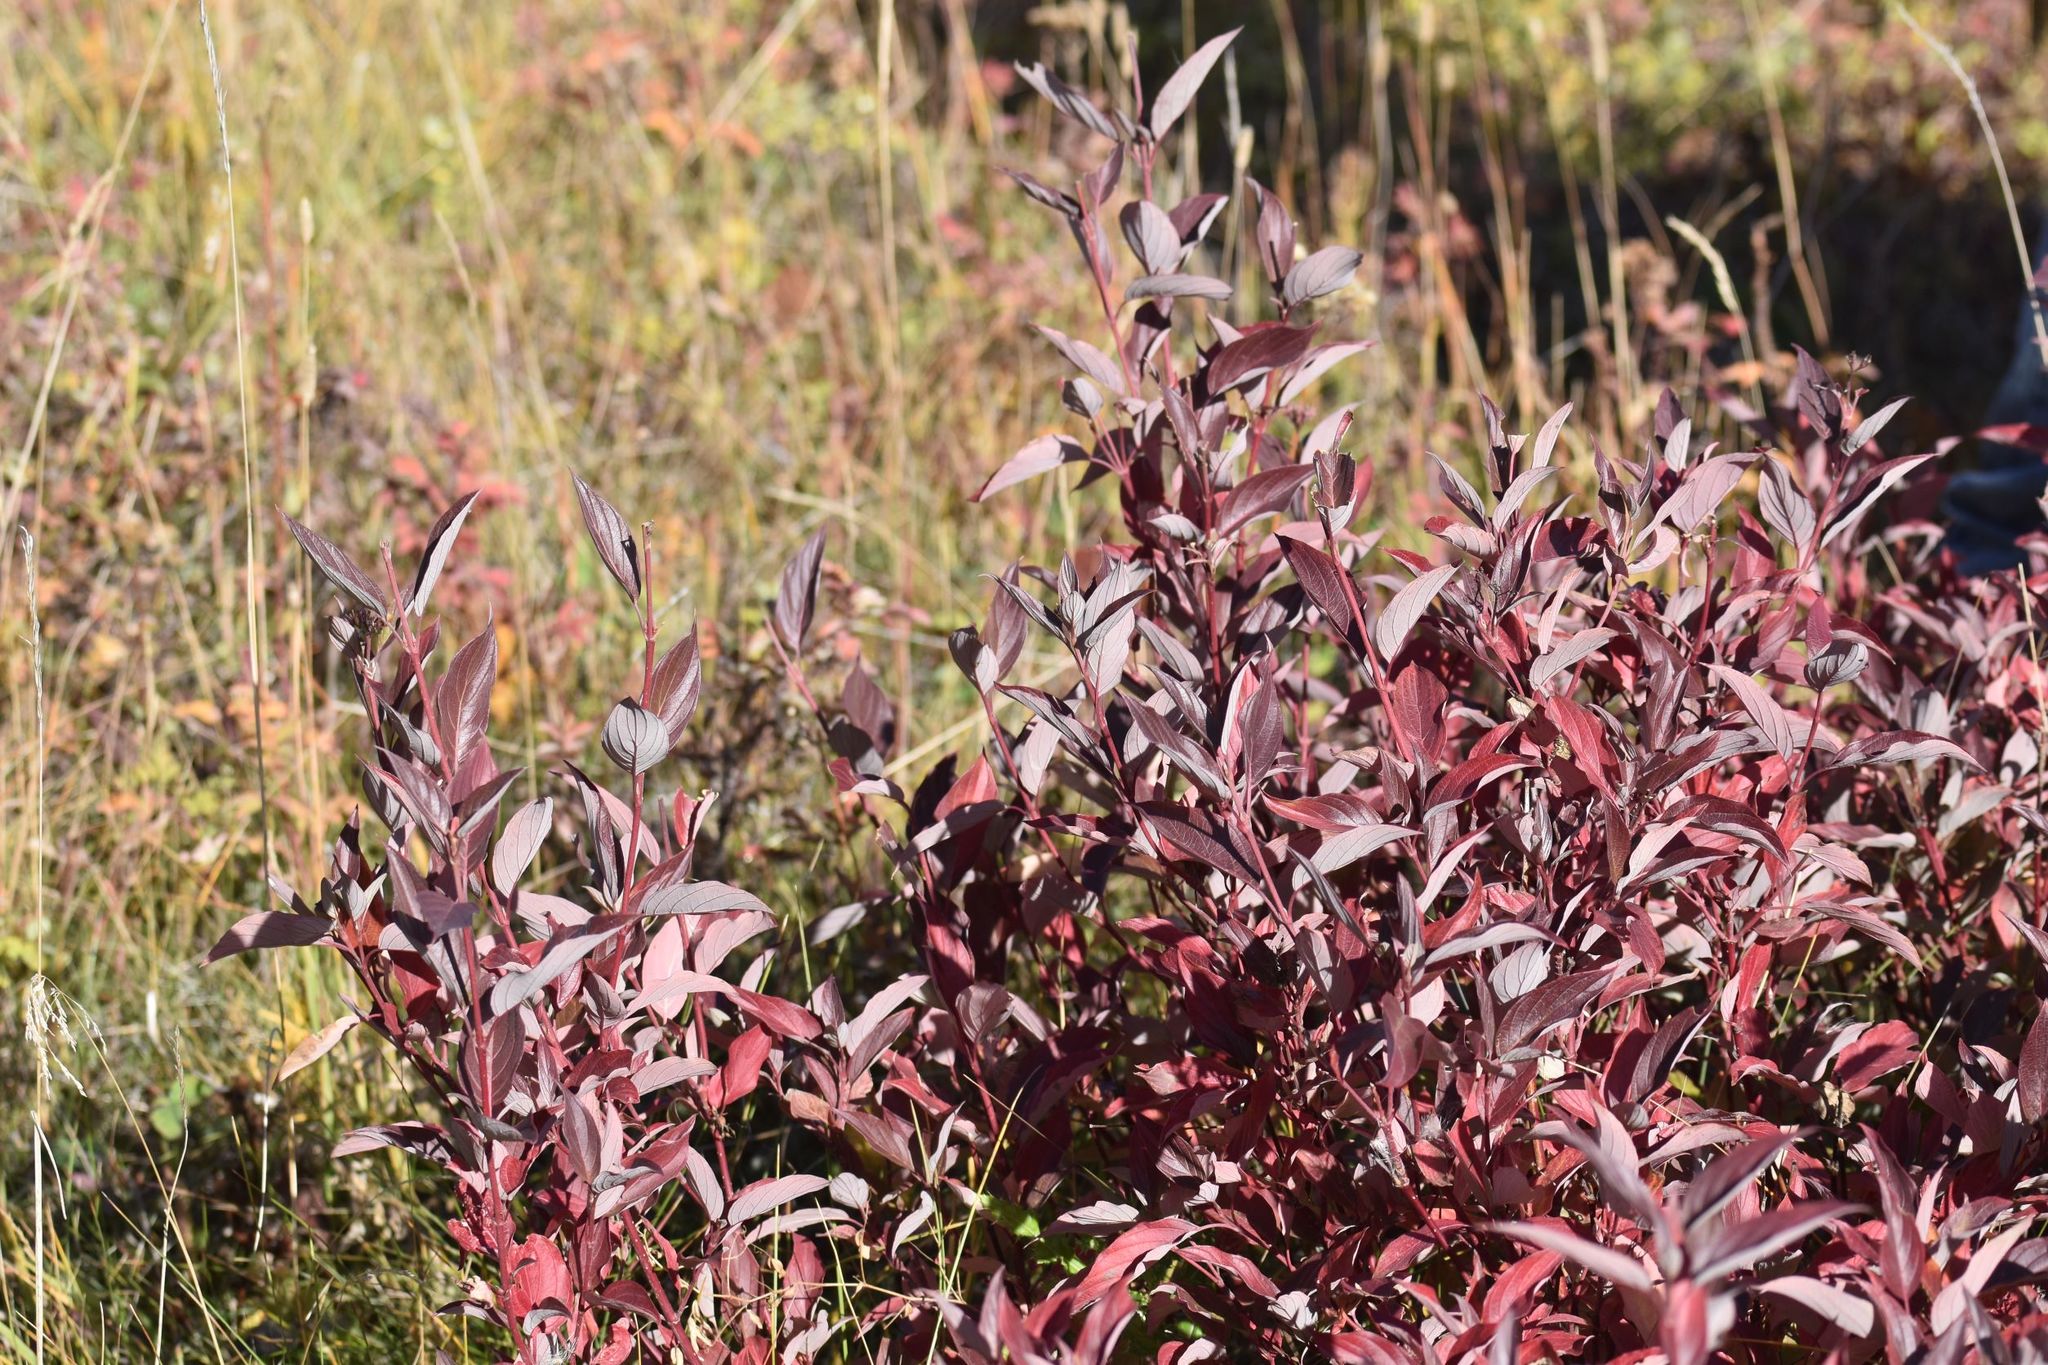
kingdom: Plantae
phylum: Tracheophyta
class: Magnoliopsida
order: Cornales
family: Cornaceae
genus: Cornus
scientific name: Cornus sericea
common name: Red-osier dogwood
